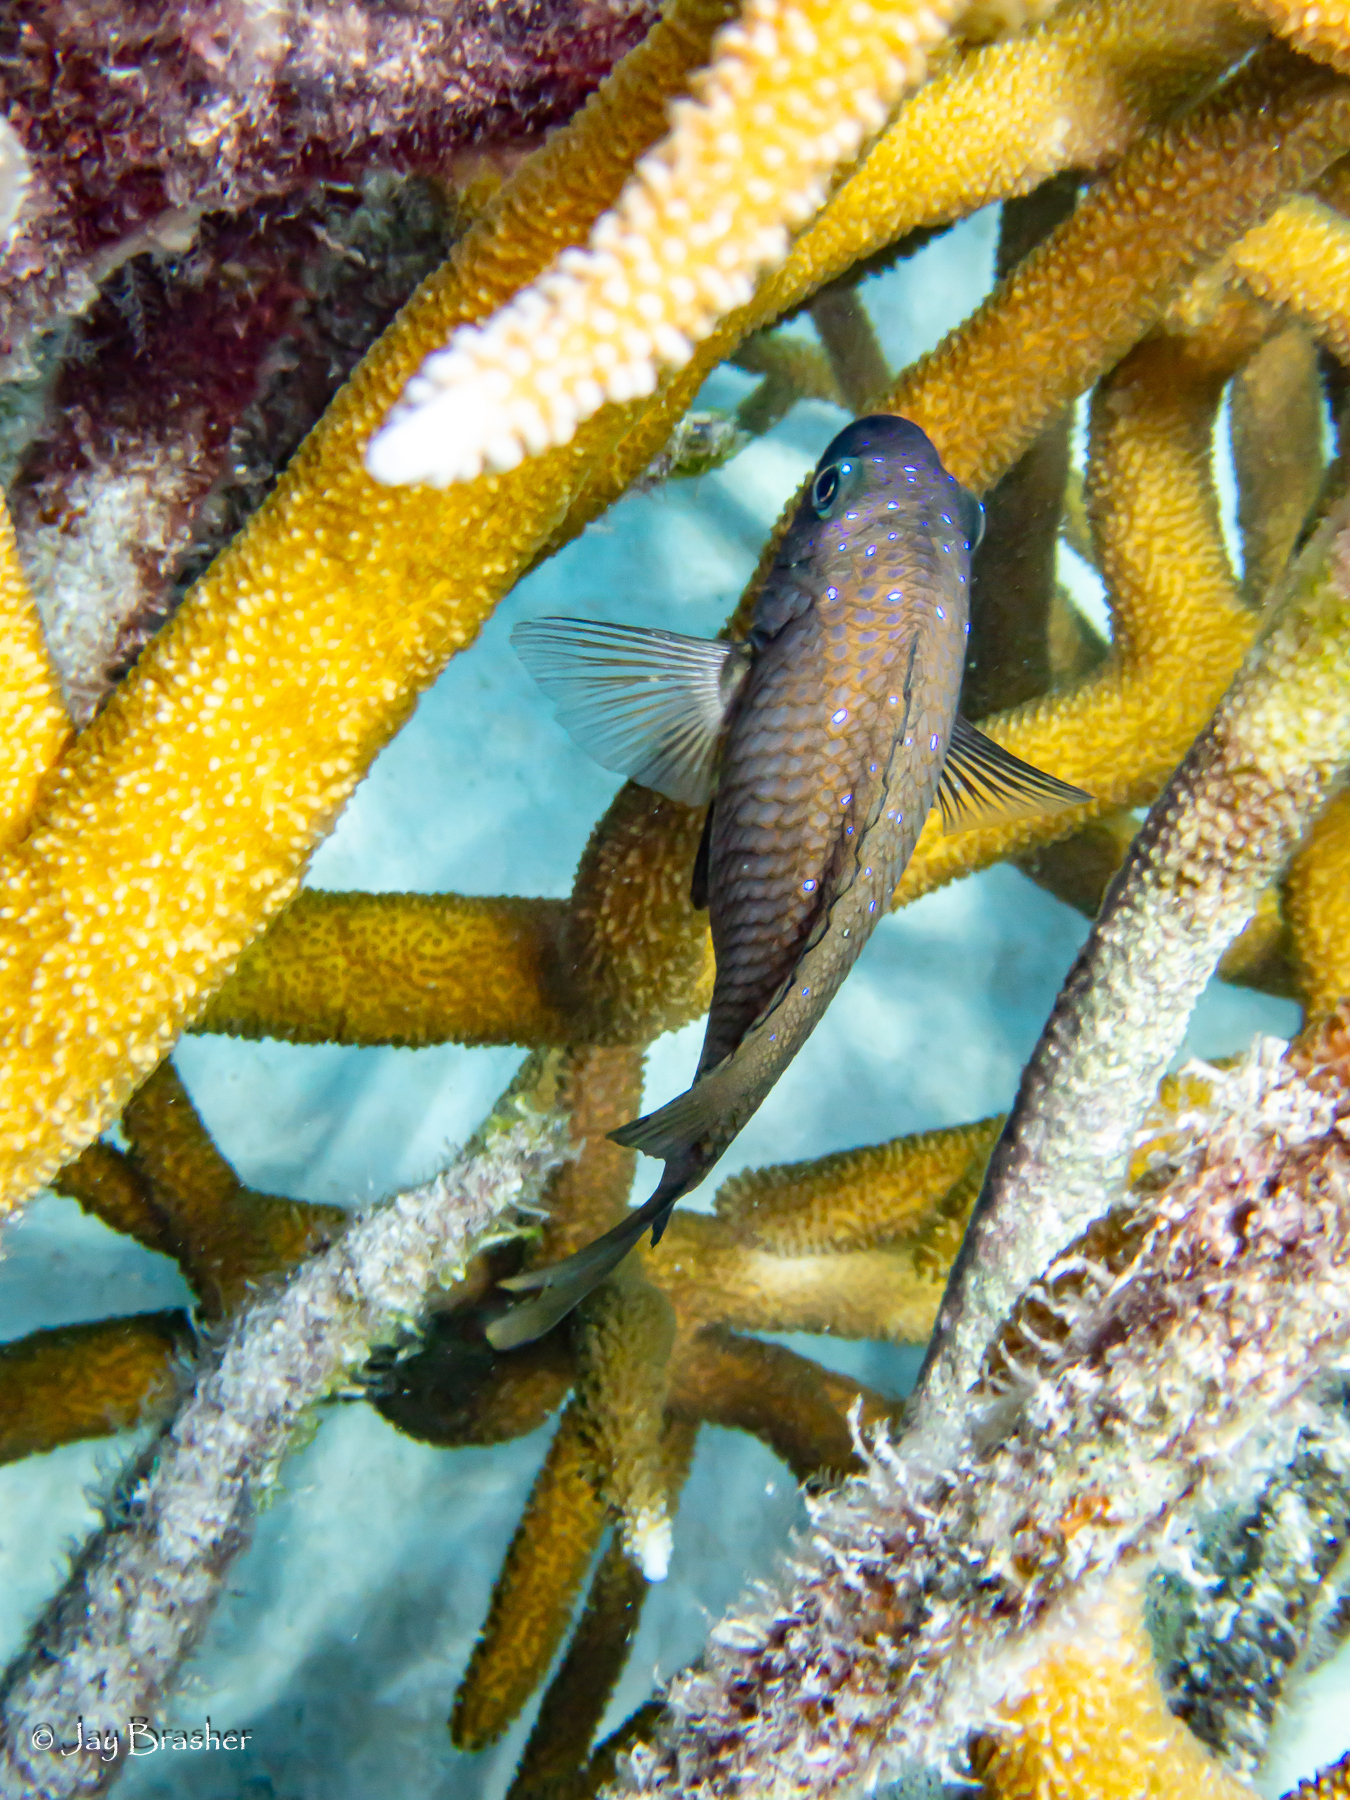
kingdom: Animalia
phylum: Chordata
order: Perciformes
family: Pomacentridae
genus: Microspathodon
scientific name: Microspathodon chrysurus
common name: Yellowtail damselfish
